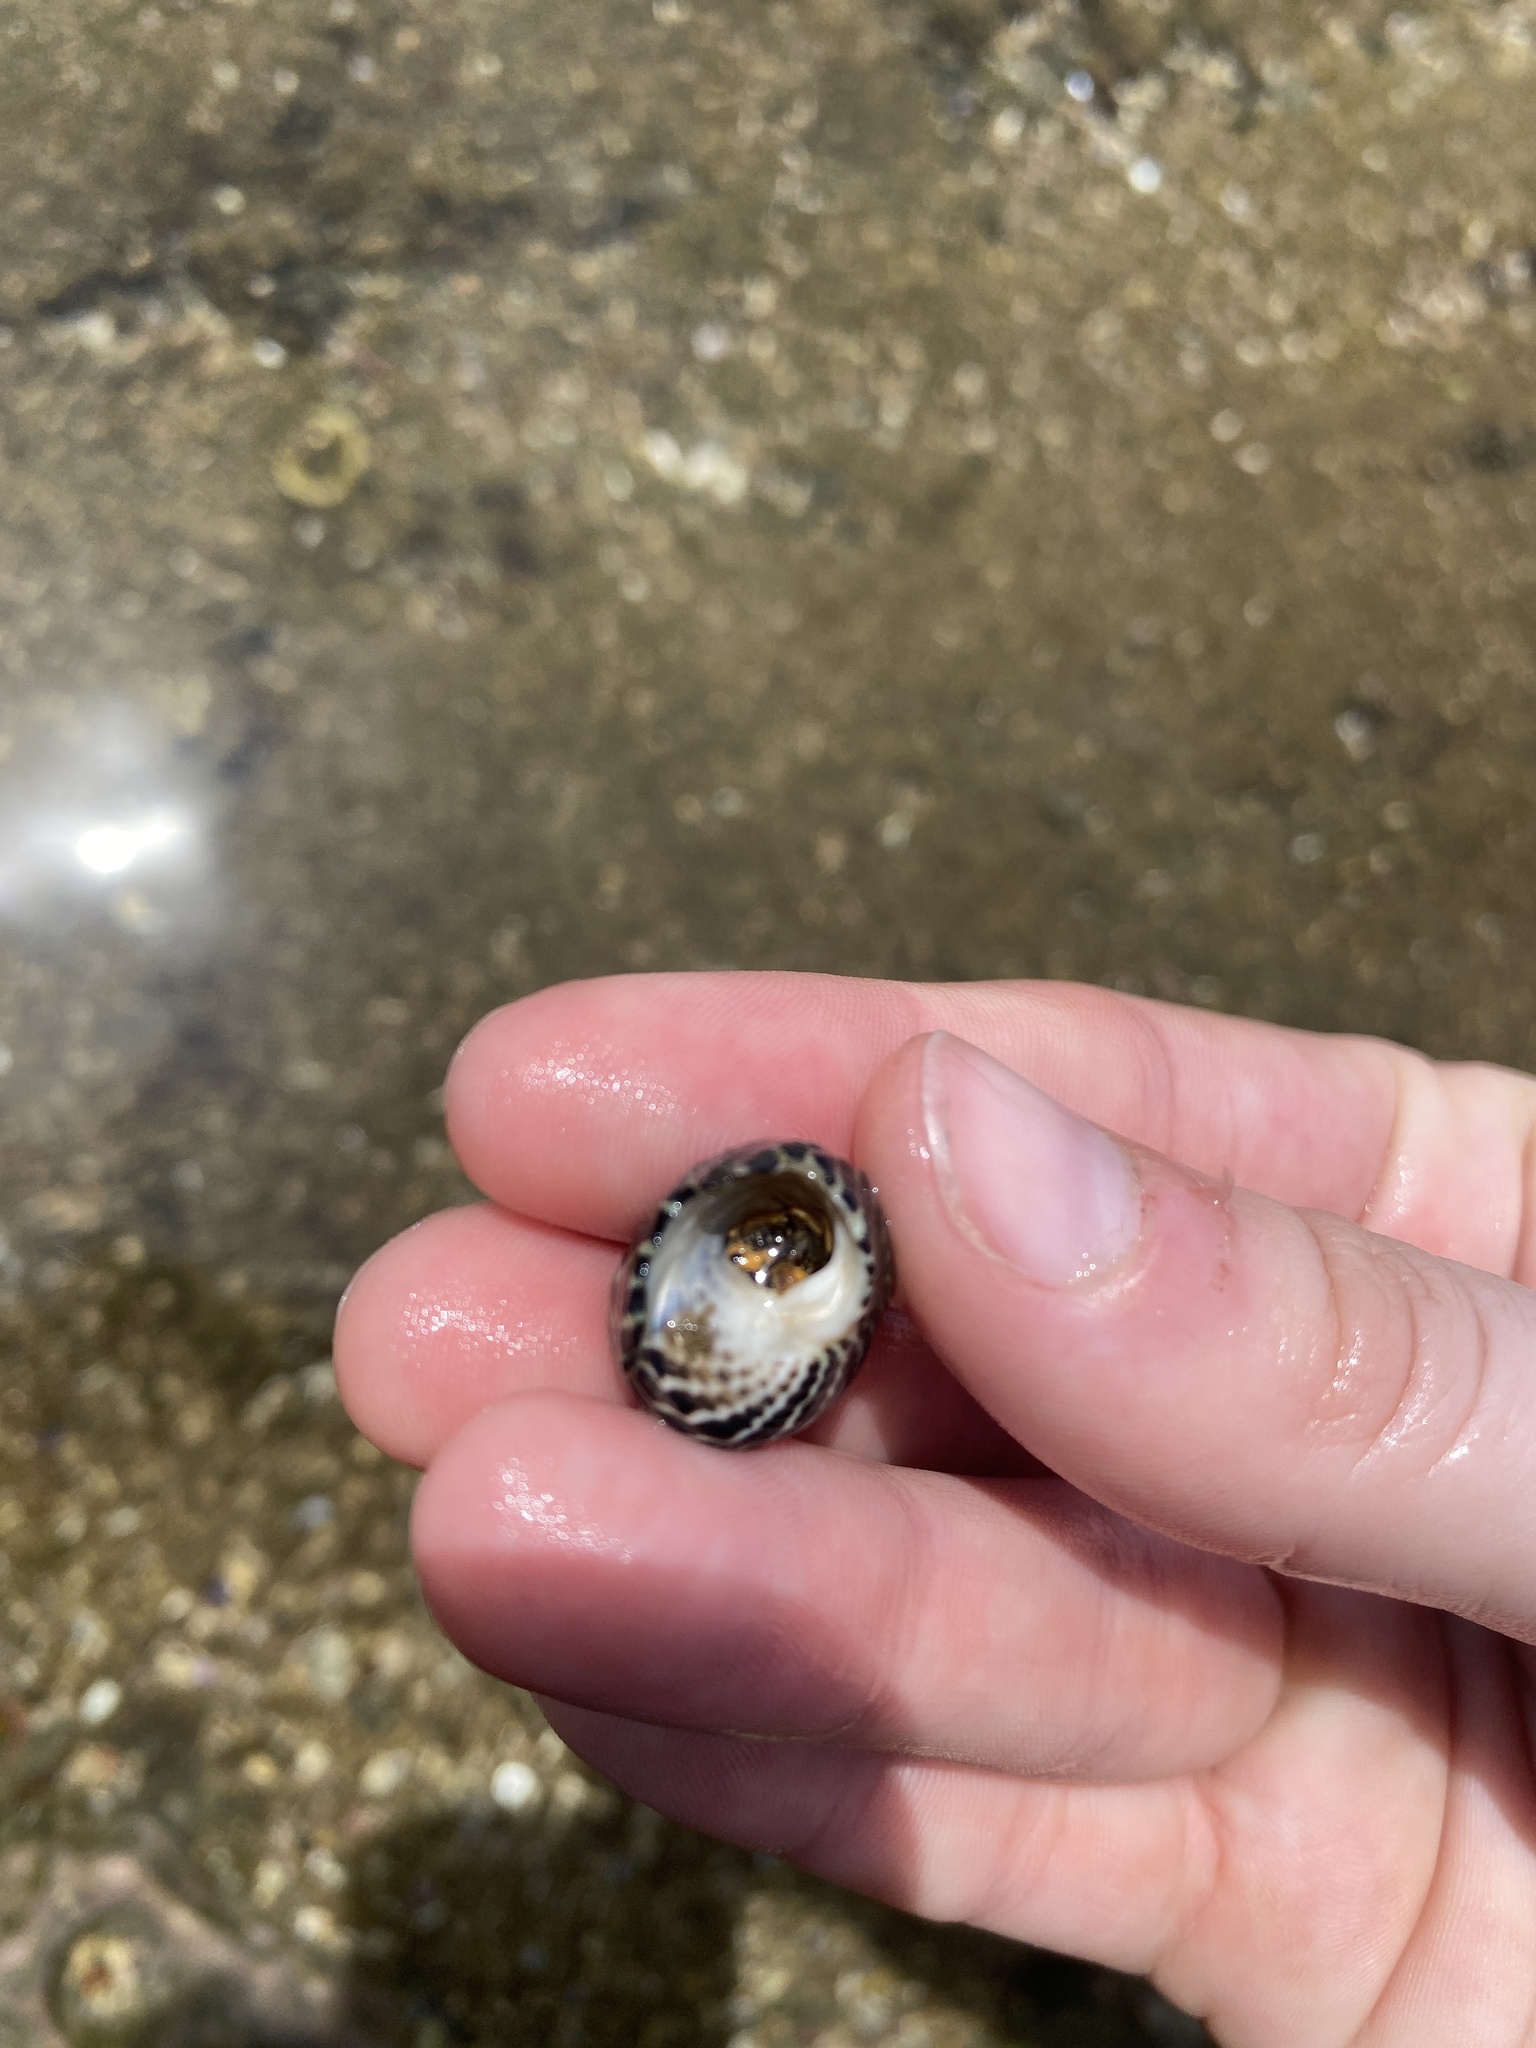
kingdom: Animalia
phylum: Arthropoda
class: Malacostraca
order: Decapoda
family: Diogenidae
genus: Clibanarius
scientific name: Clibanarius virescens
